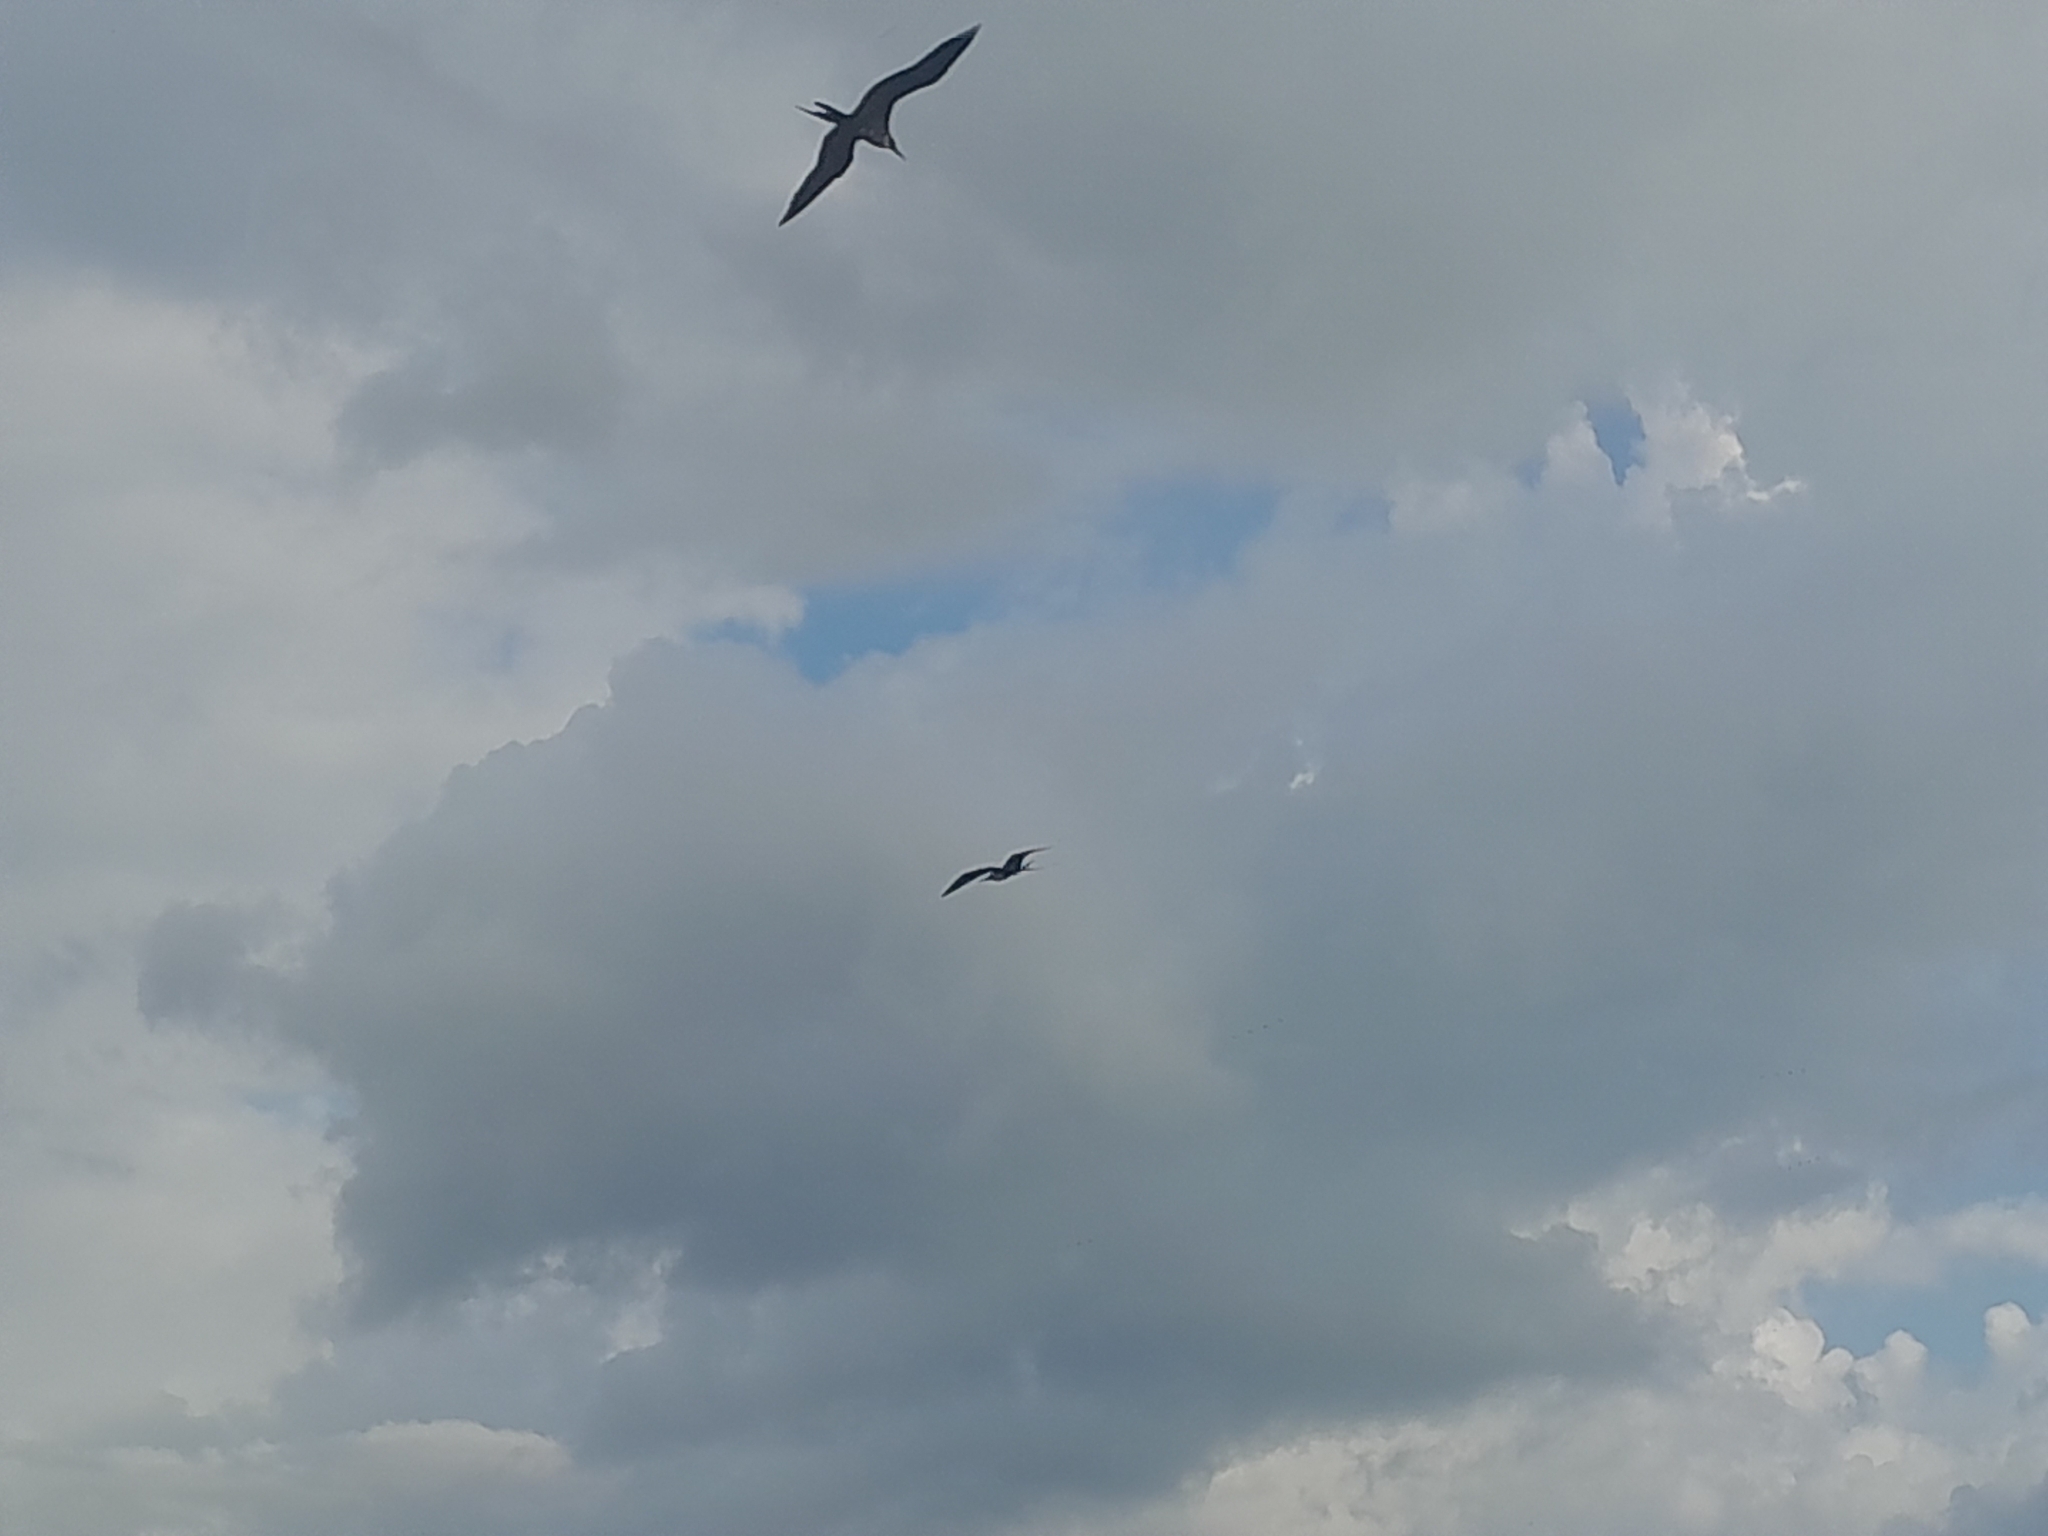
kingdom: Animalia
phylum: Chordata
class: Aves
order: Suliformes
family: Fregatidae
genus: Fregata
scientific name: Fregata magnificens
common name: Magnificent frigatebird
